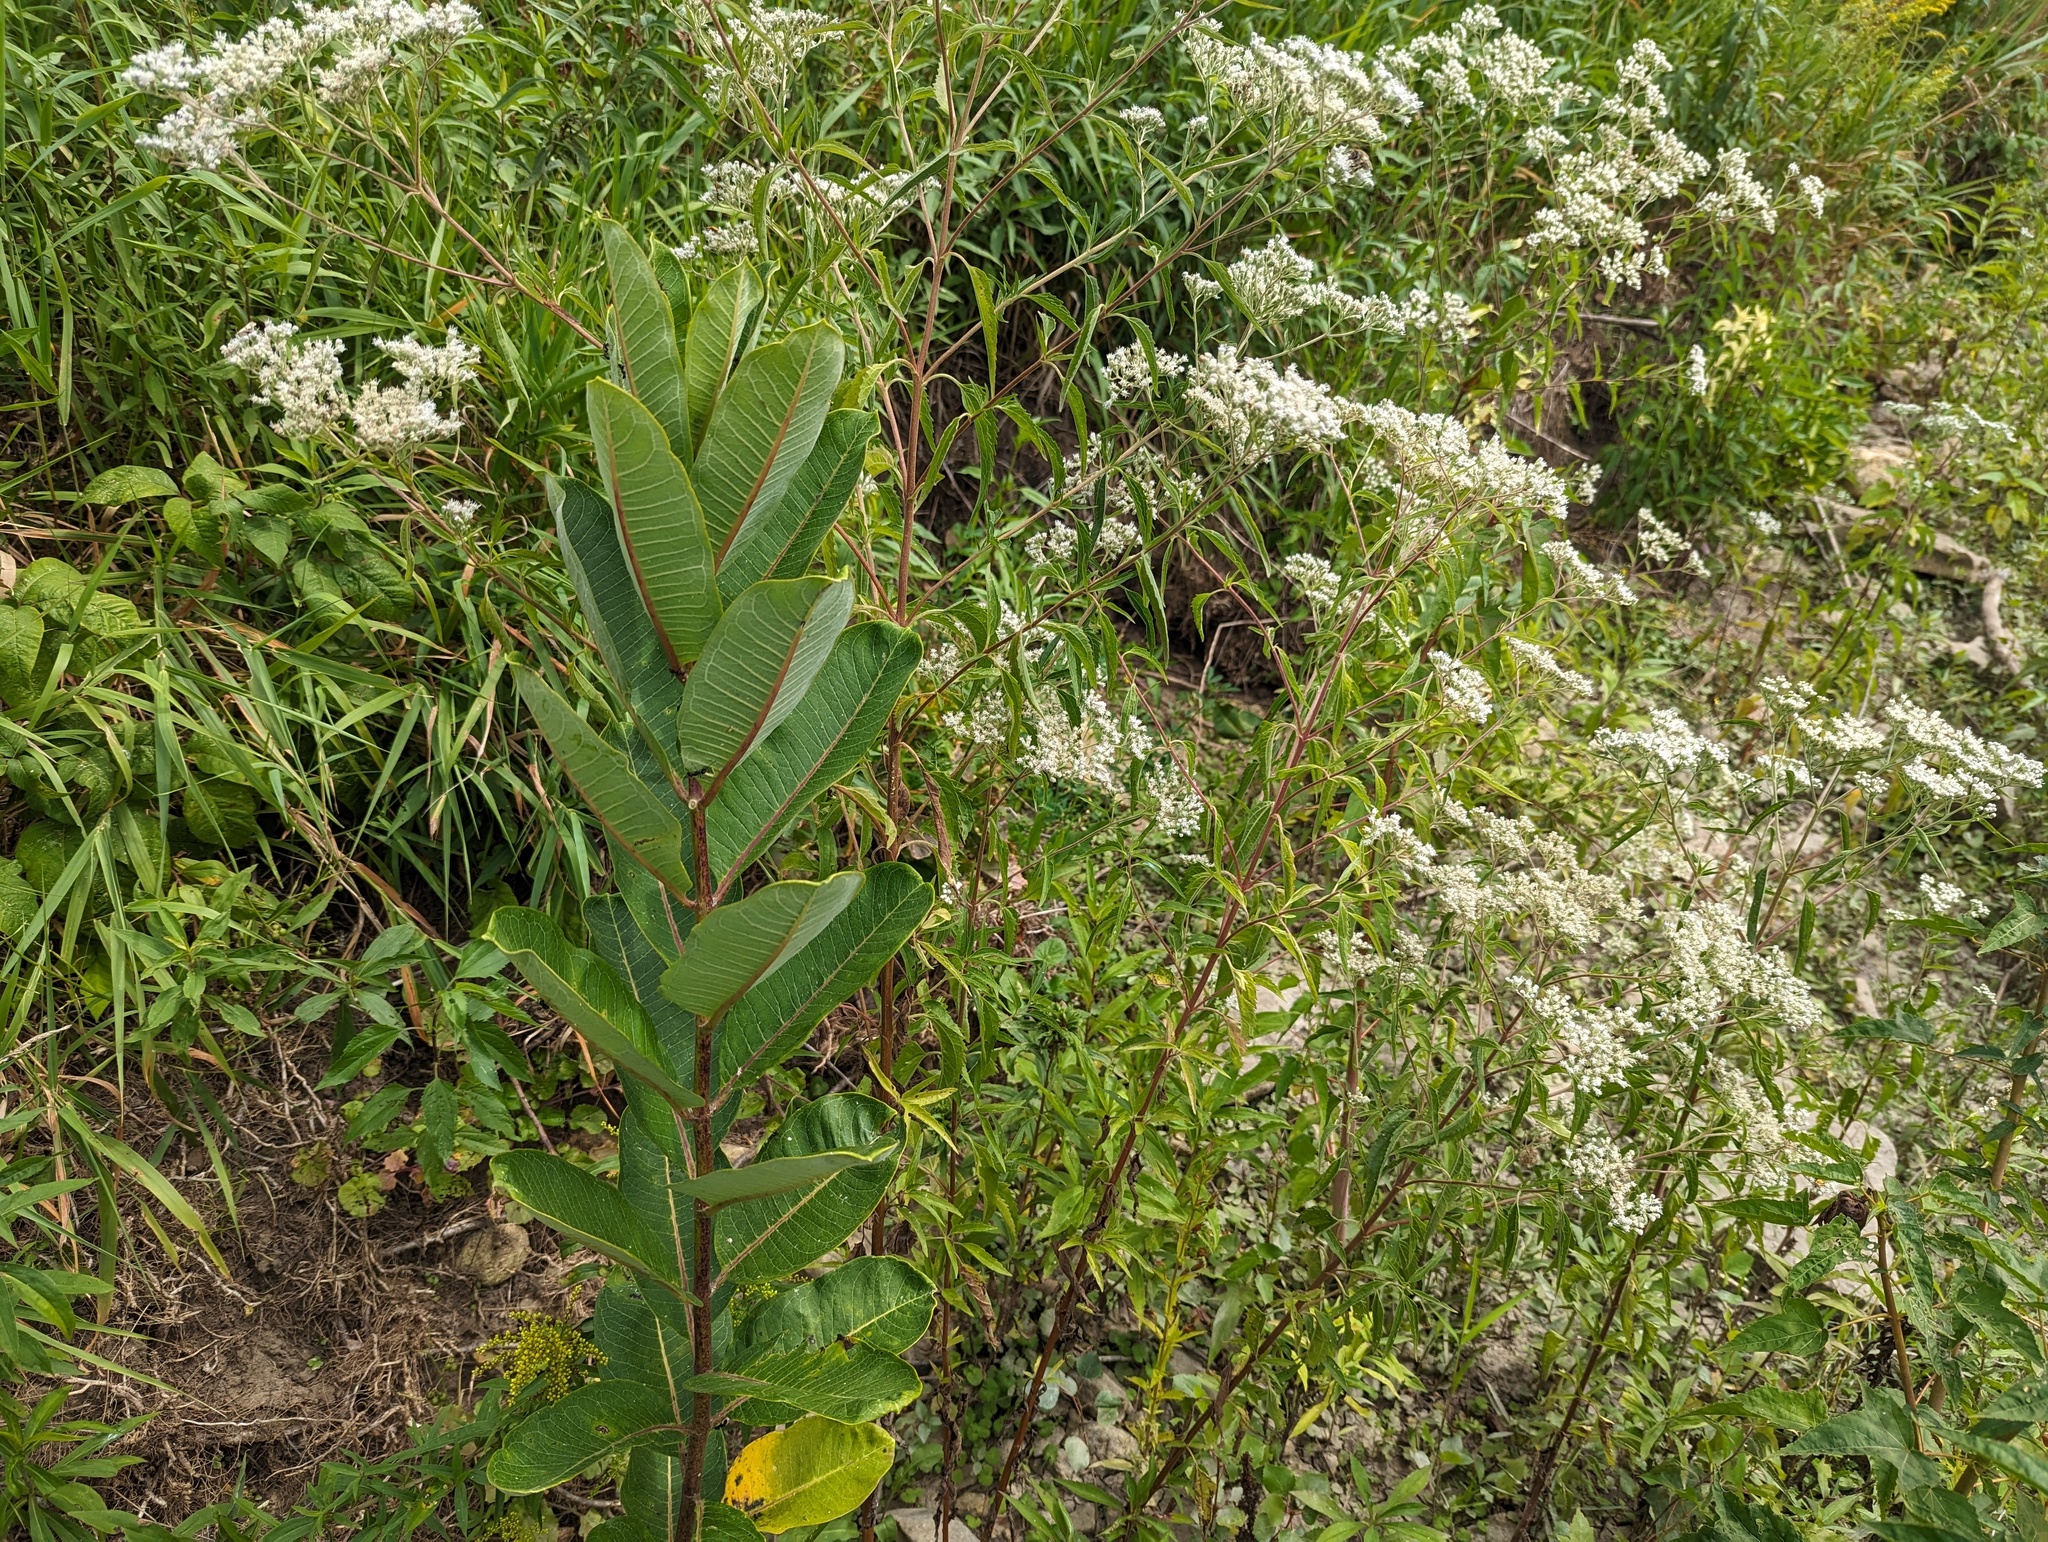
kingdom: Plantae
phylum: Tracheophyta
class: Magnoliopsida
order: Asterales
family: Asteraceae
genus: Eupatorium
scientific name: Eupatorium serotinum
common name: Late boneset
